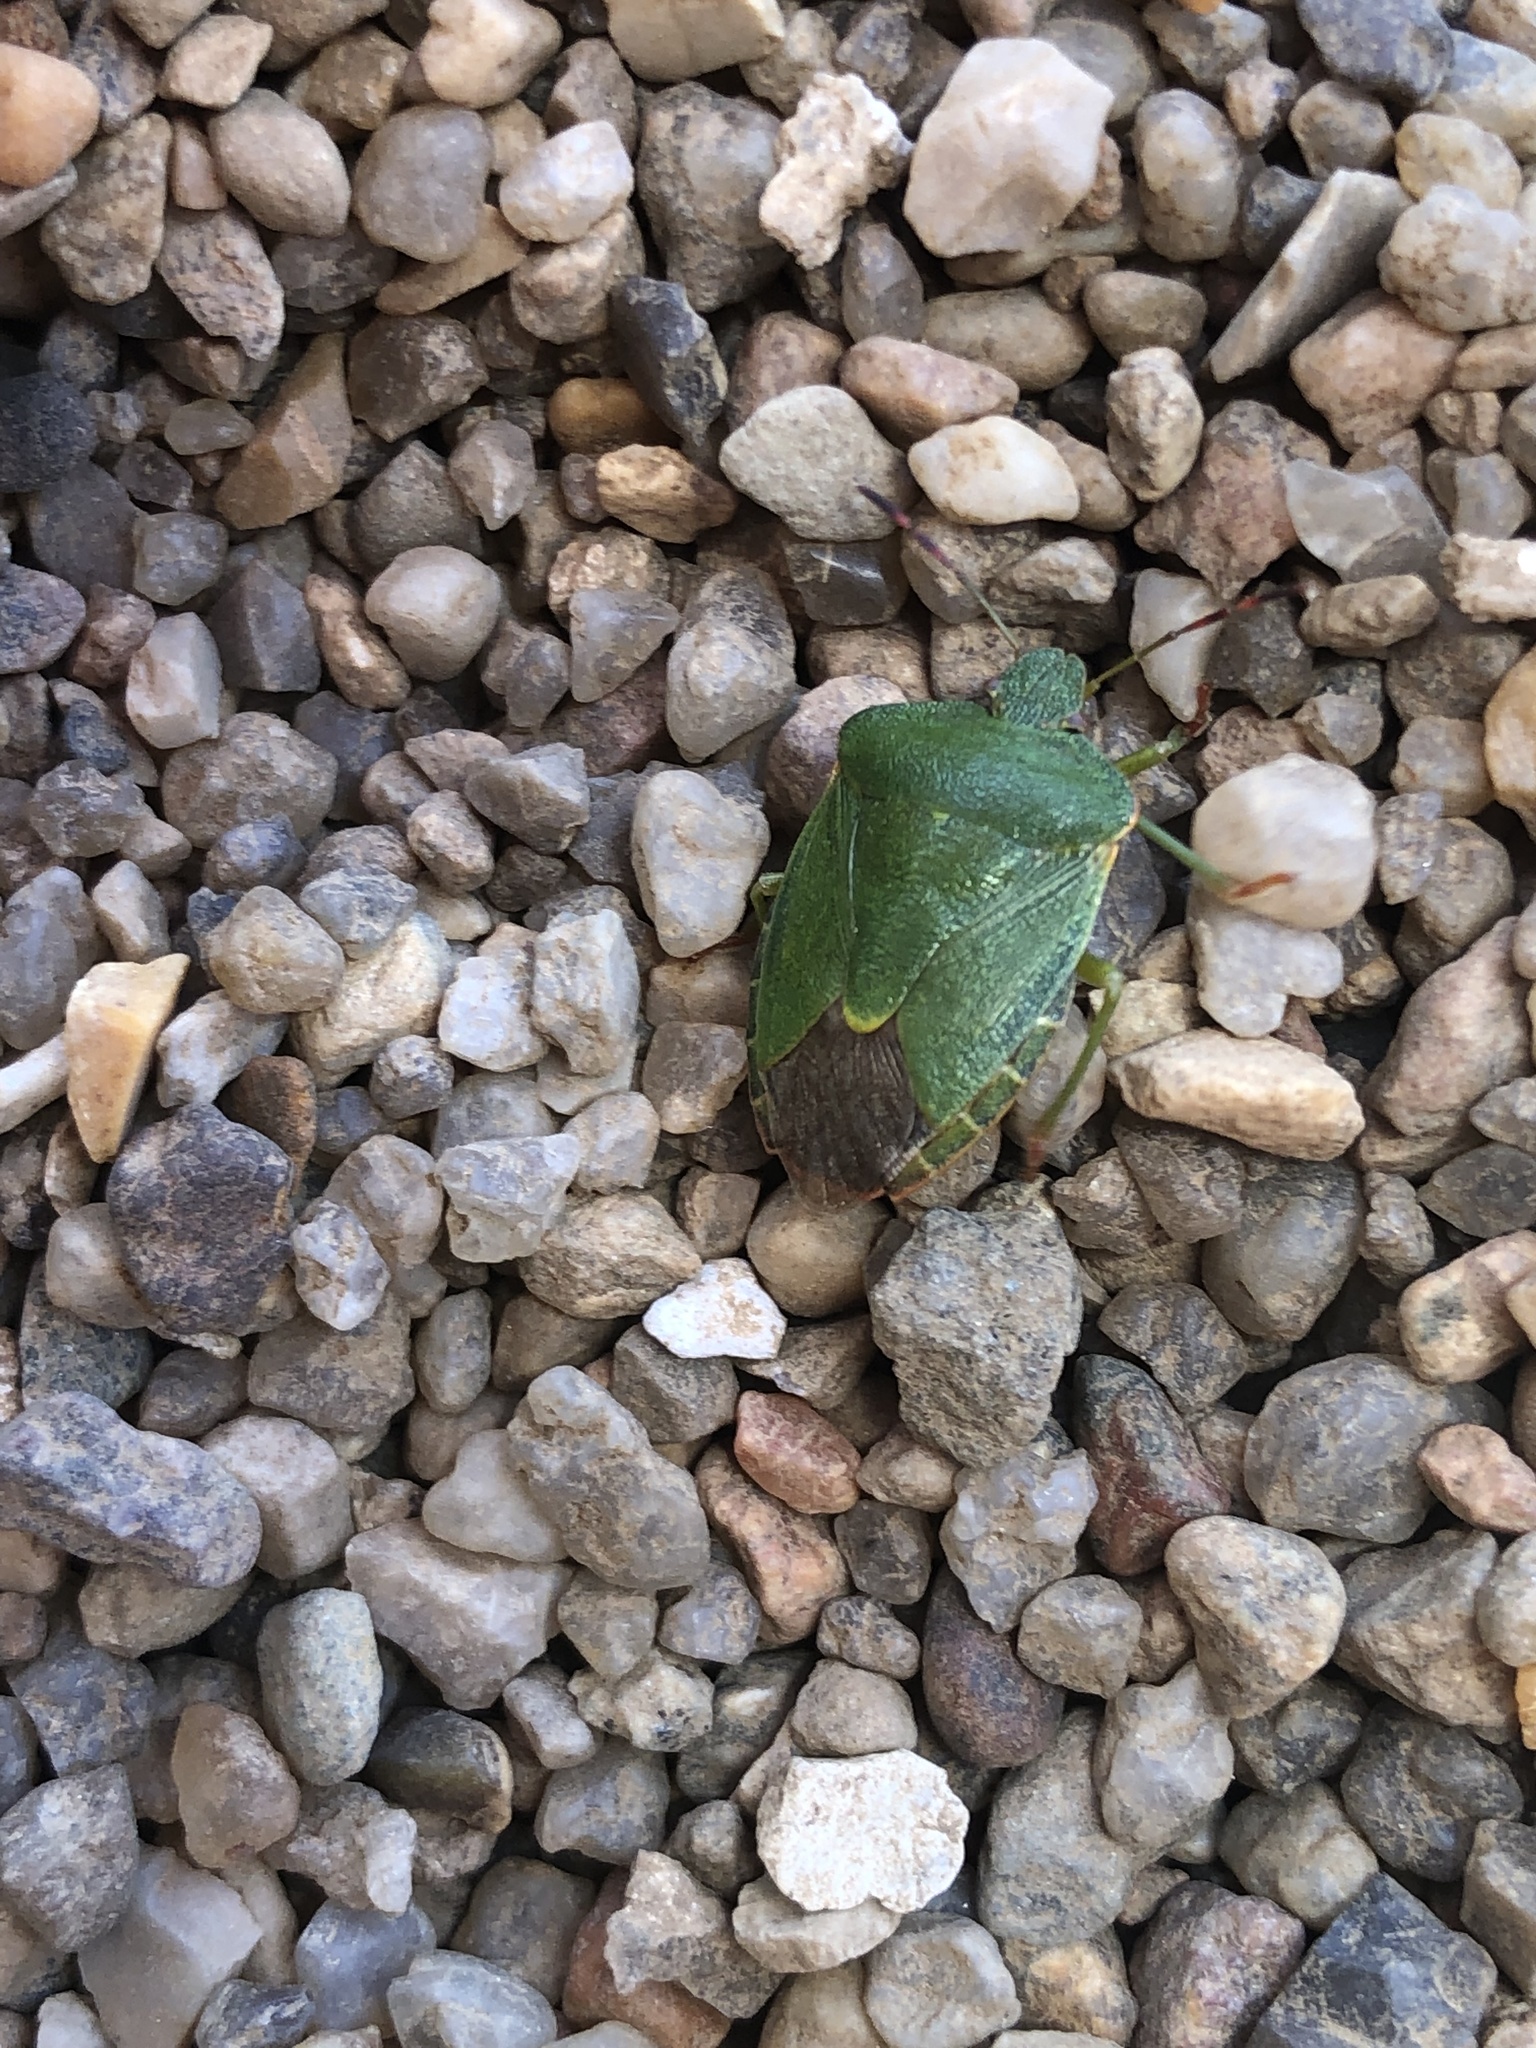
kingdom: Animalia
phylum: Arthropoda
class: Insecta
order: Hemiptera
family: Pentatomidae
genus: Palomena
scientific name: Palomena prasina
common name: Green shieldbug
